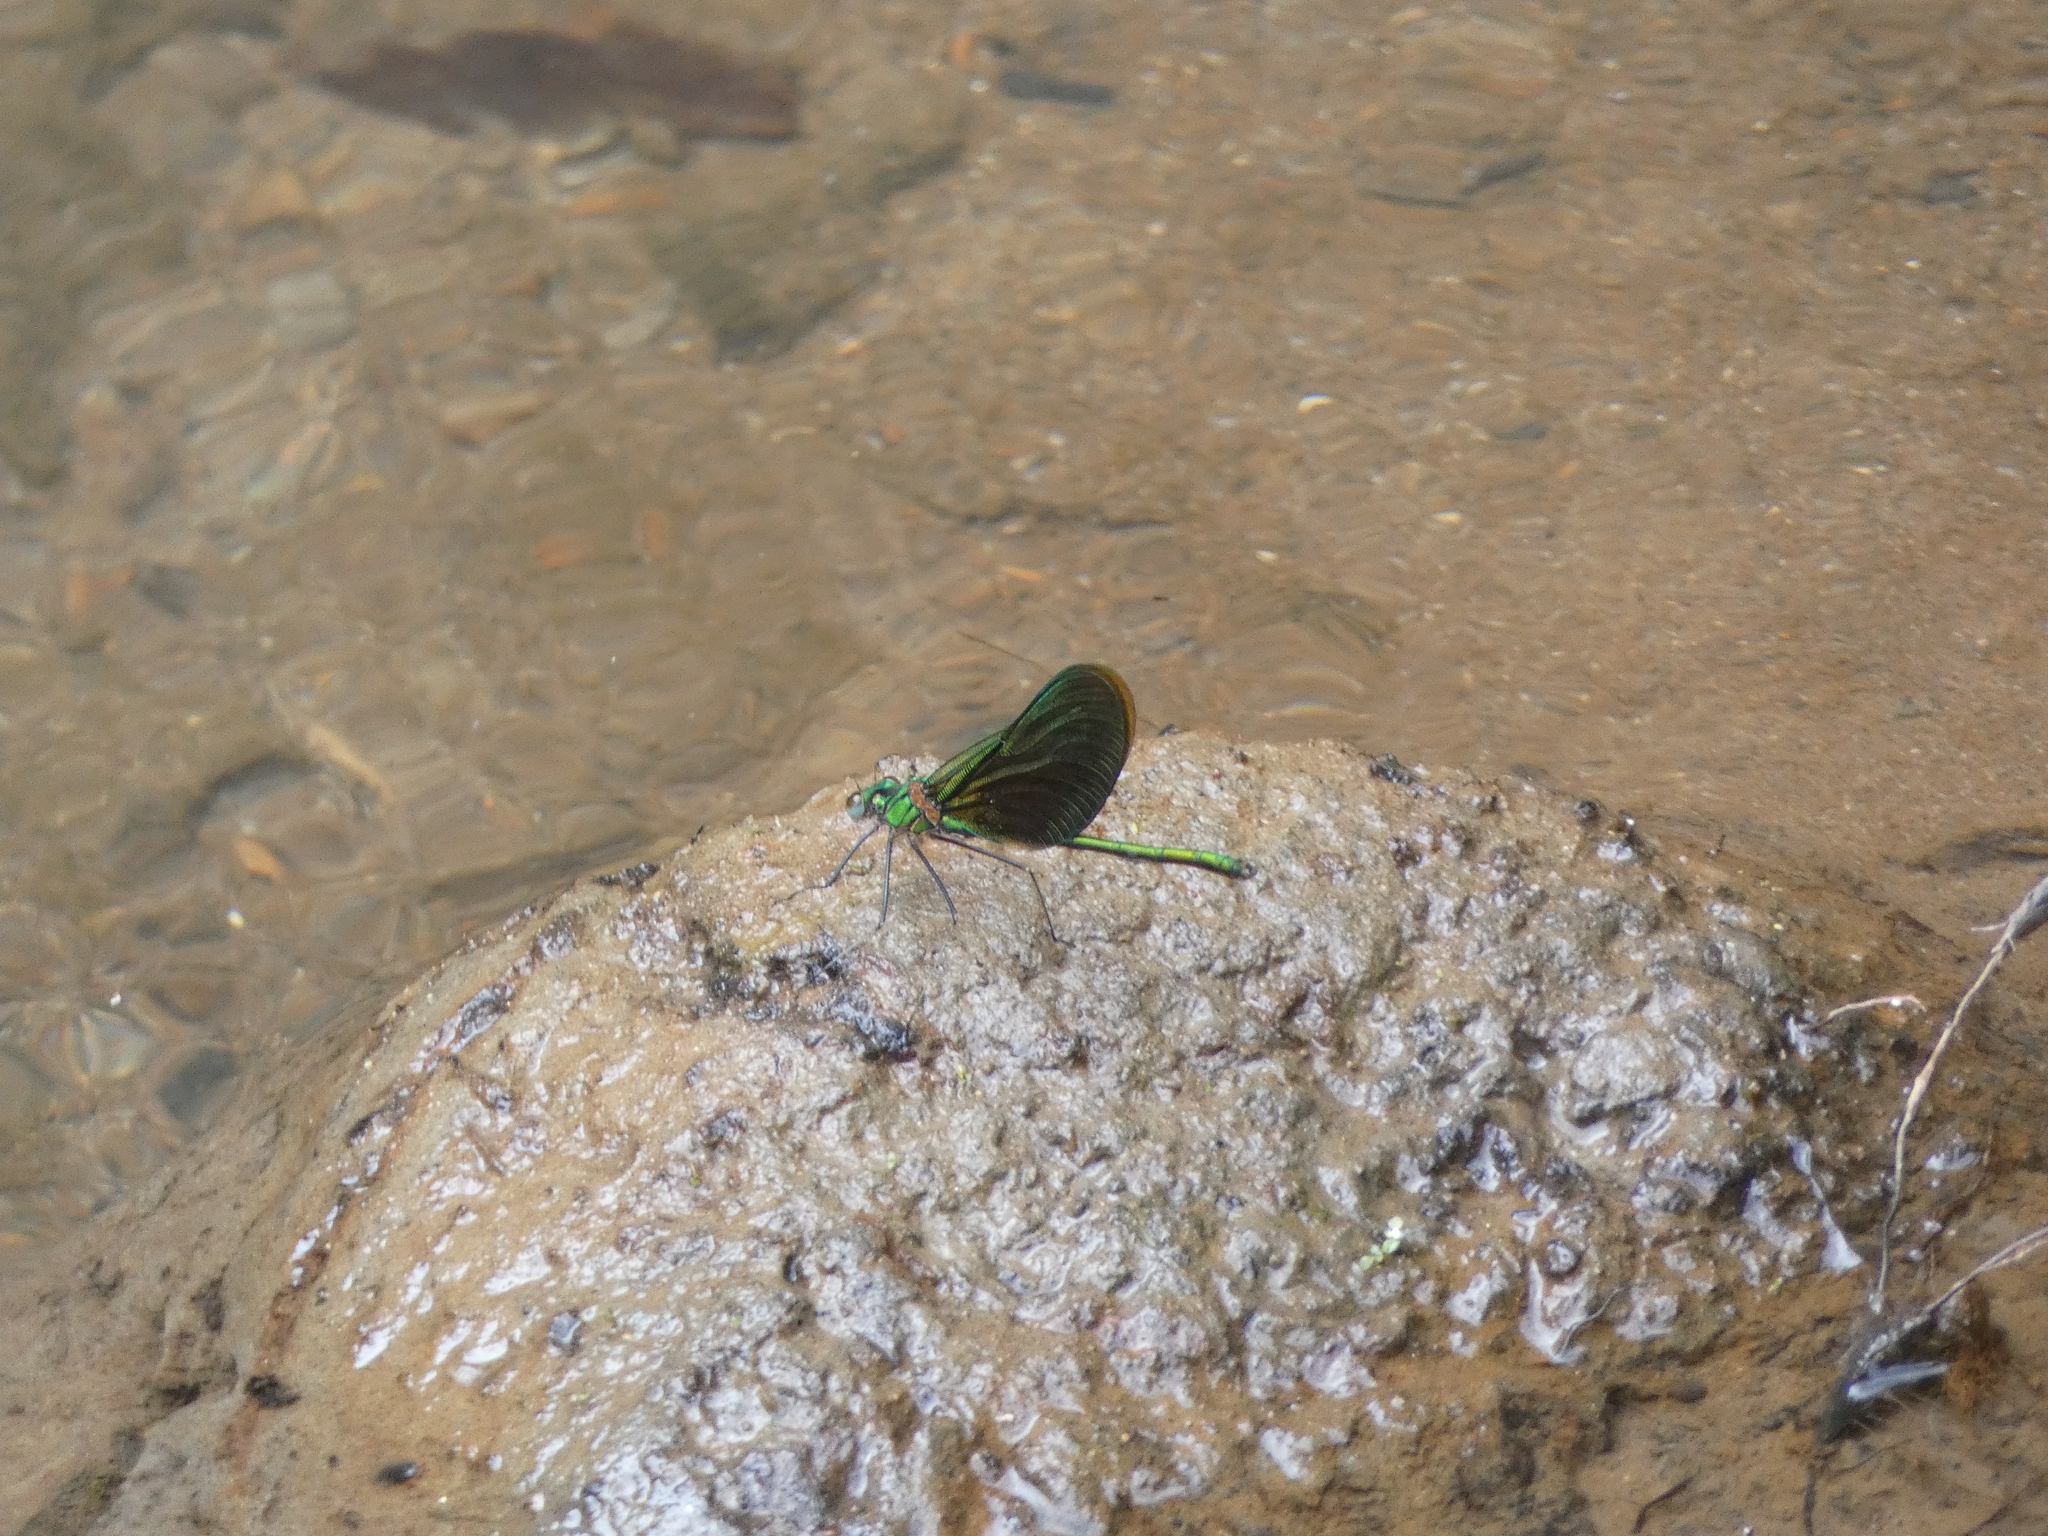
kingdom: Animalia
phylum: Arthropoda
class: Insecta
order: Odonata
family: Calopterygidae
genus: Neurobasis
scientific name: Neurobasis chinensis
